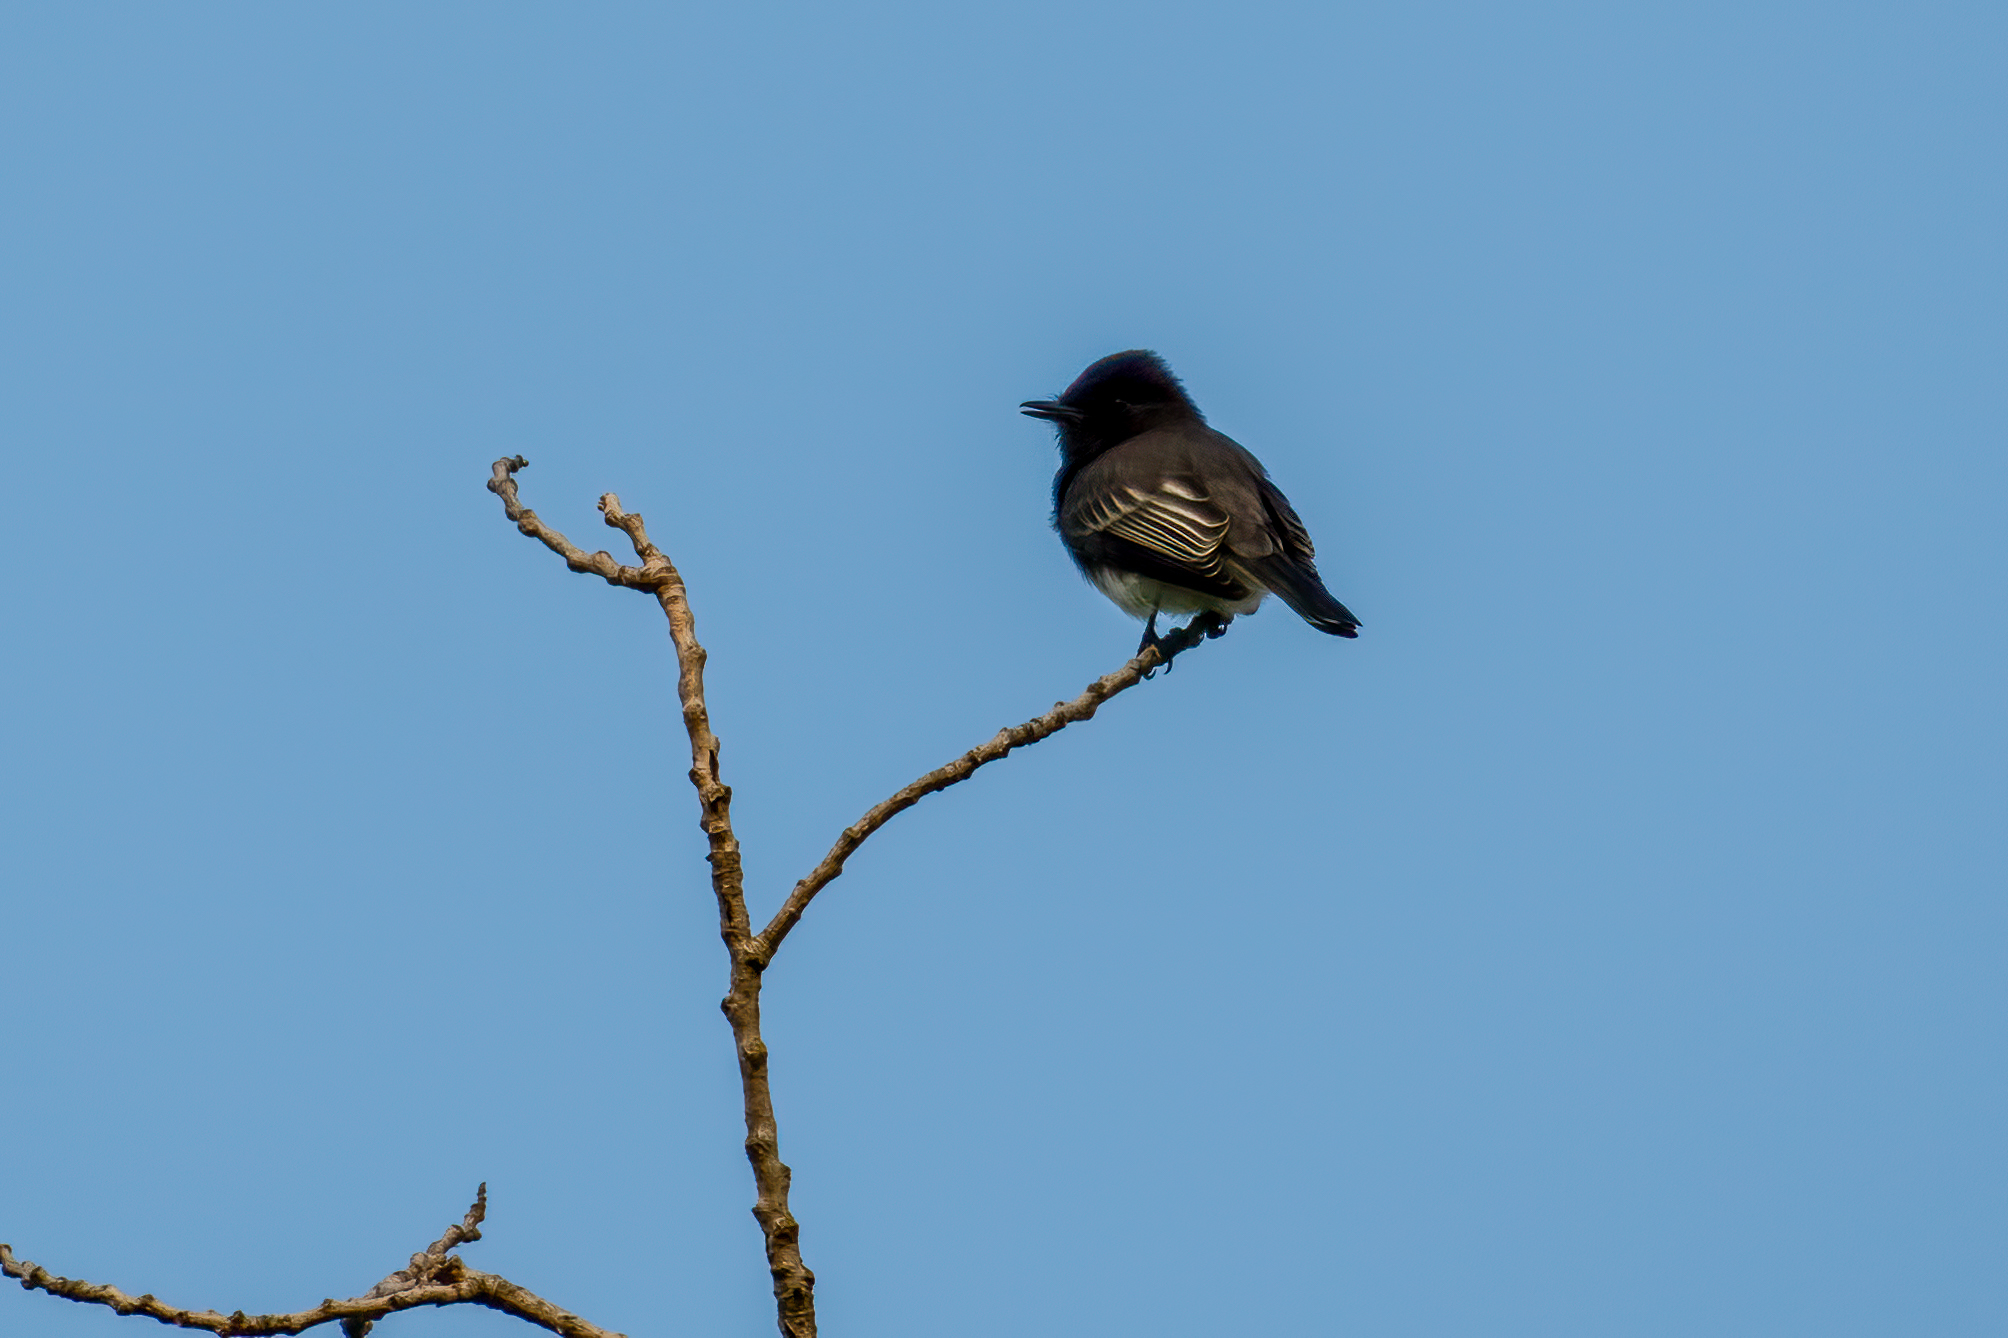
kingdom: Animalia
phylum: Chordata
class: Aves
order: Passeriformes
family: Tyrannidae
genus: Sayornis
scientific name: Sayornis nigricans
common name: Black phoebe
